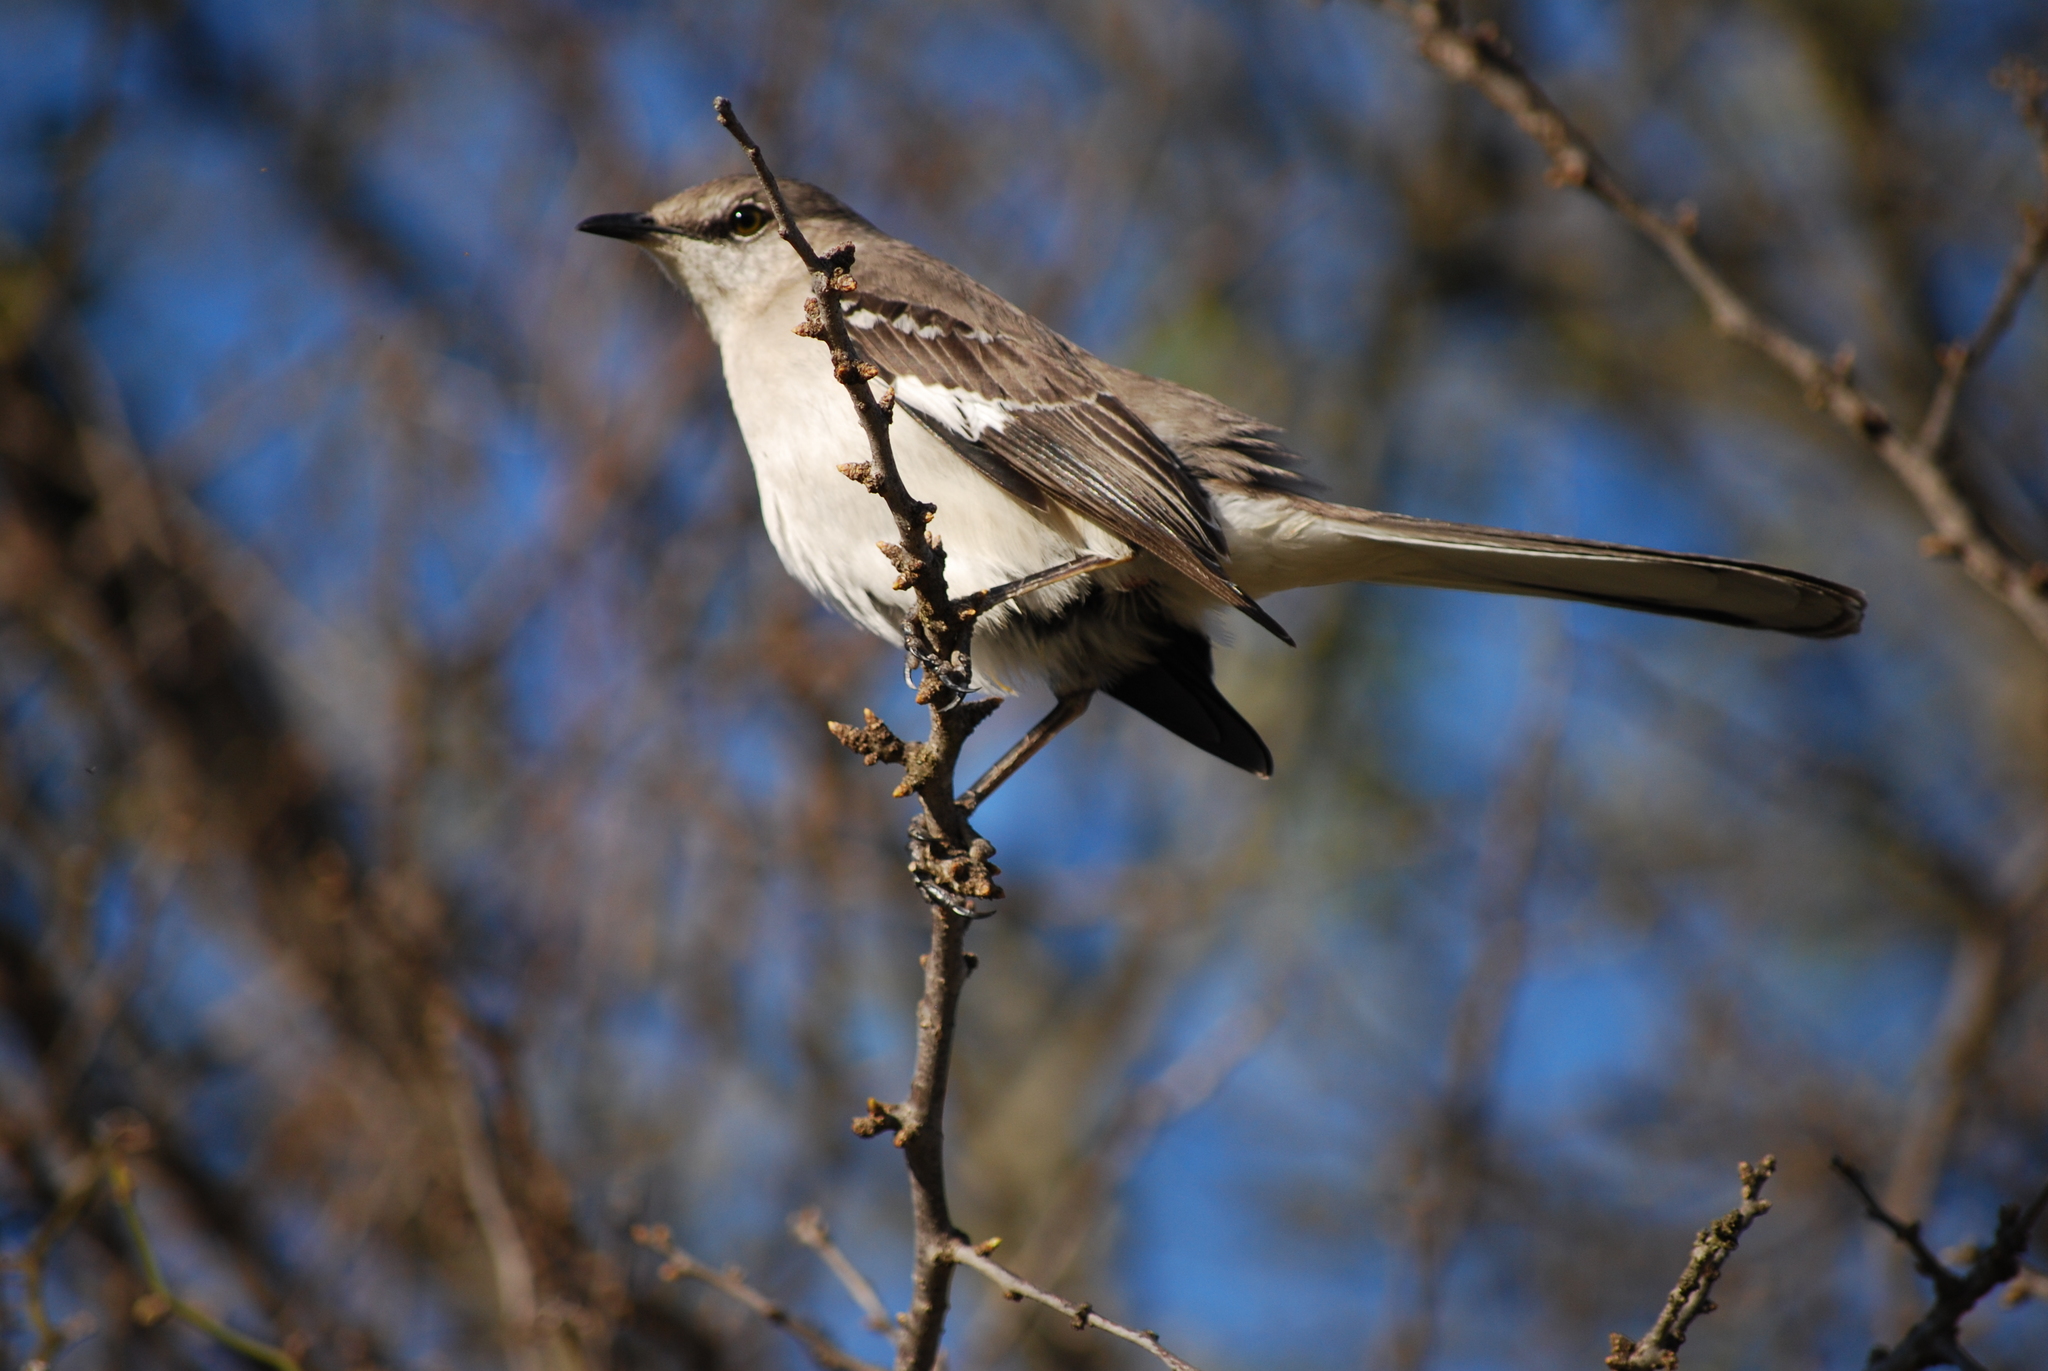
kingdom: Animalia
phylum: Chordata
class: Aves
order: Passeriformes
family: Mimidae
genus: Mimus
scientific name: Mimus polyglottos
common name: Northern mockingbird
